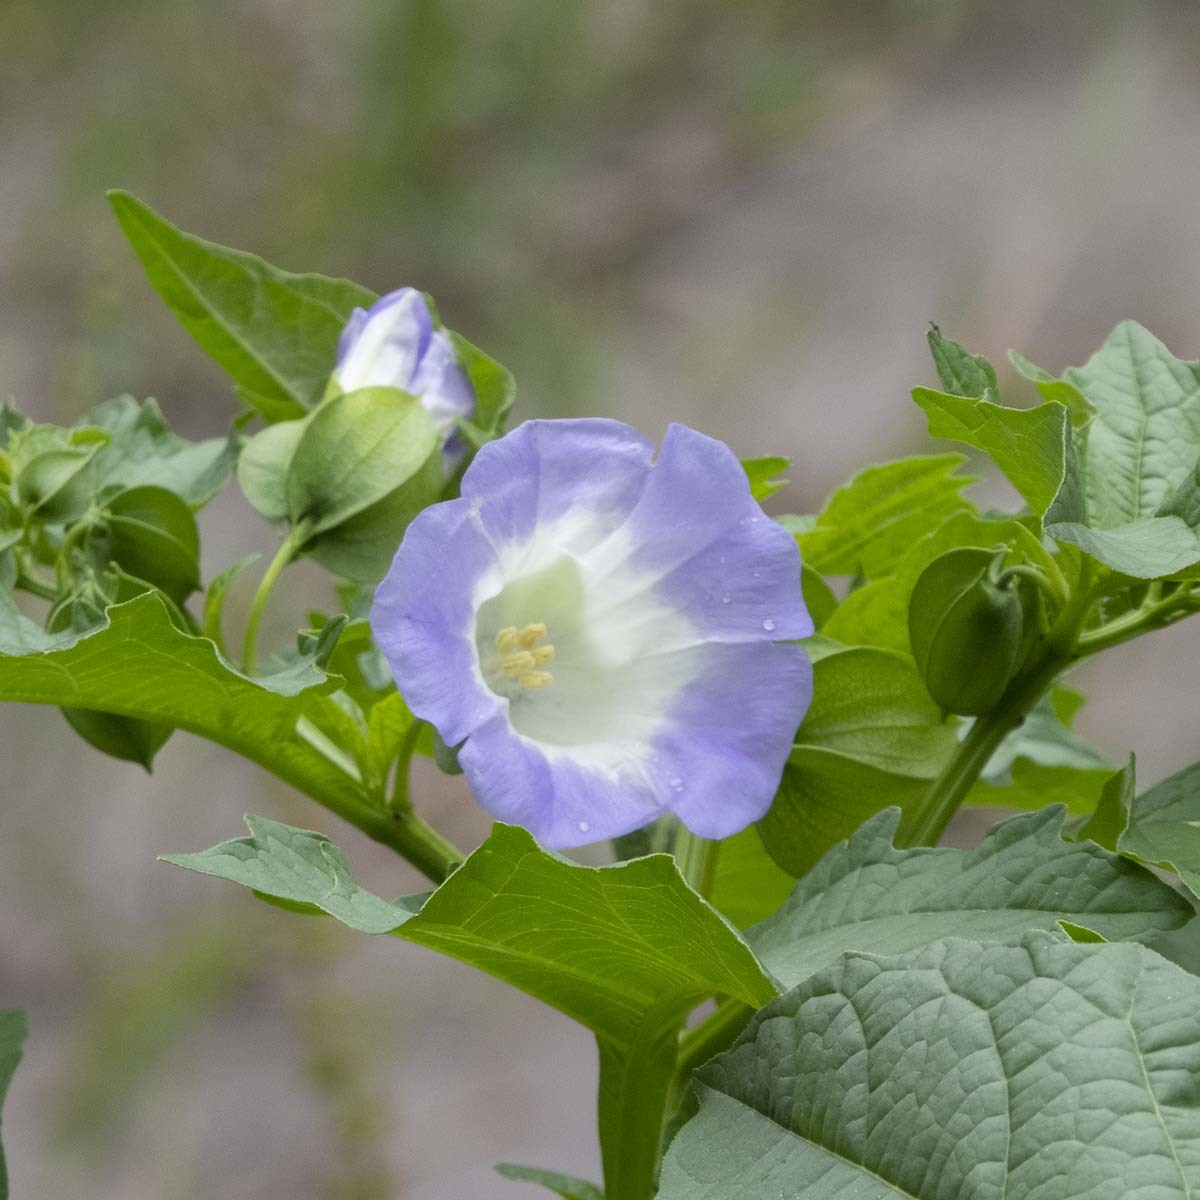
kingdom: Plantae
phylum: Tracheophyta
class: Magnoliopsida
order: Solanales
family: Solanaceae
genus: Nicandra
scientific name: Nicandra physalodes
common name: Apple-of-peru
